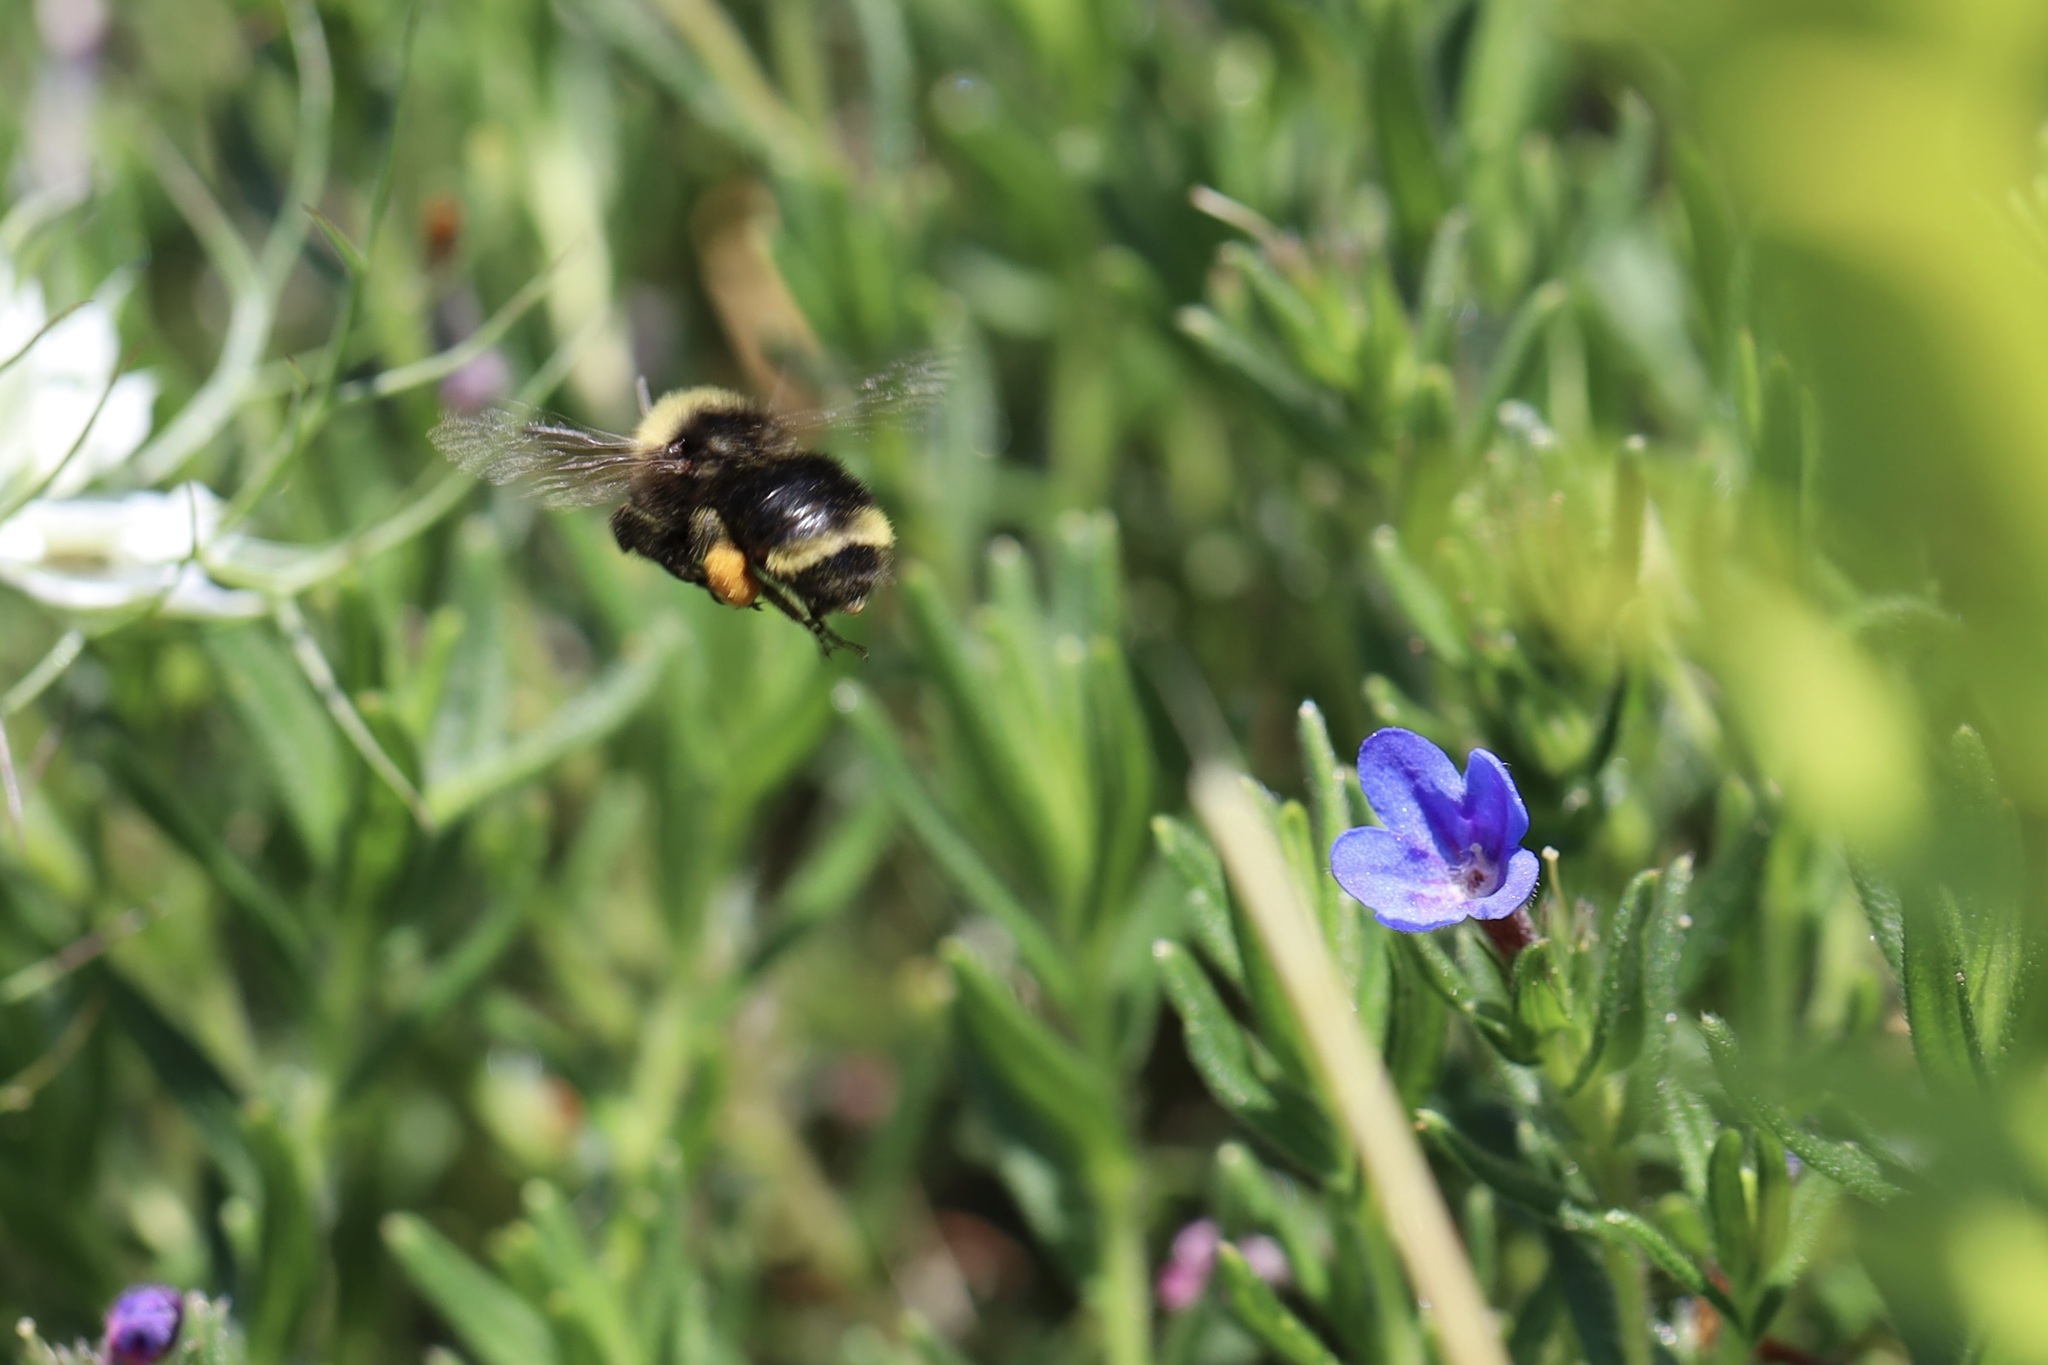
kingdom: Animalia
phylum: Arthropoda
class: Insecta
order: Hymenoptera
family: Apidae
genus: Bombus
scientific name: Bombus californicus
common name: California bumble bee
